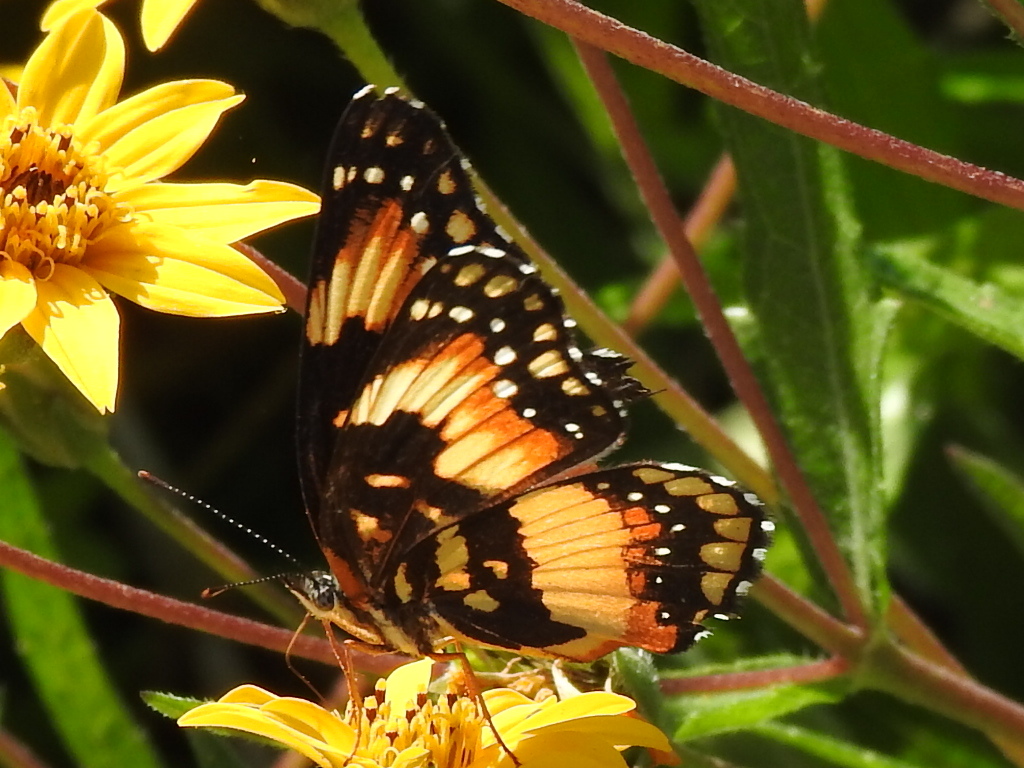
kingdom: Animalia
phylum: Arthropoda
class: Insecta
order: Lepidoptera
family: Nymphalidae
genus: Chlosyne
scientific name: Chlosyne lacinia
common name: Bordered patch
